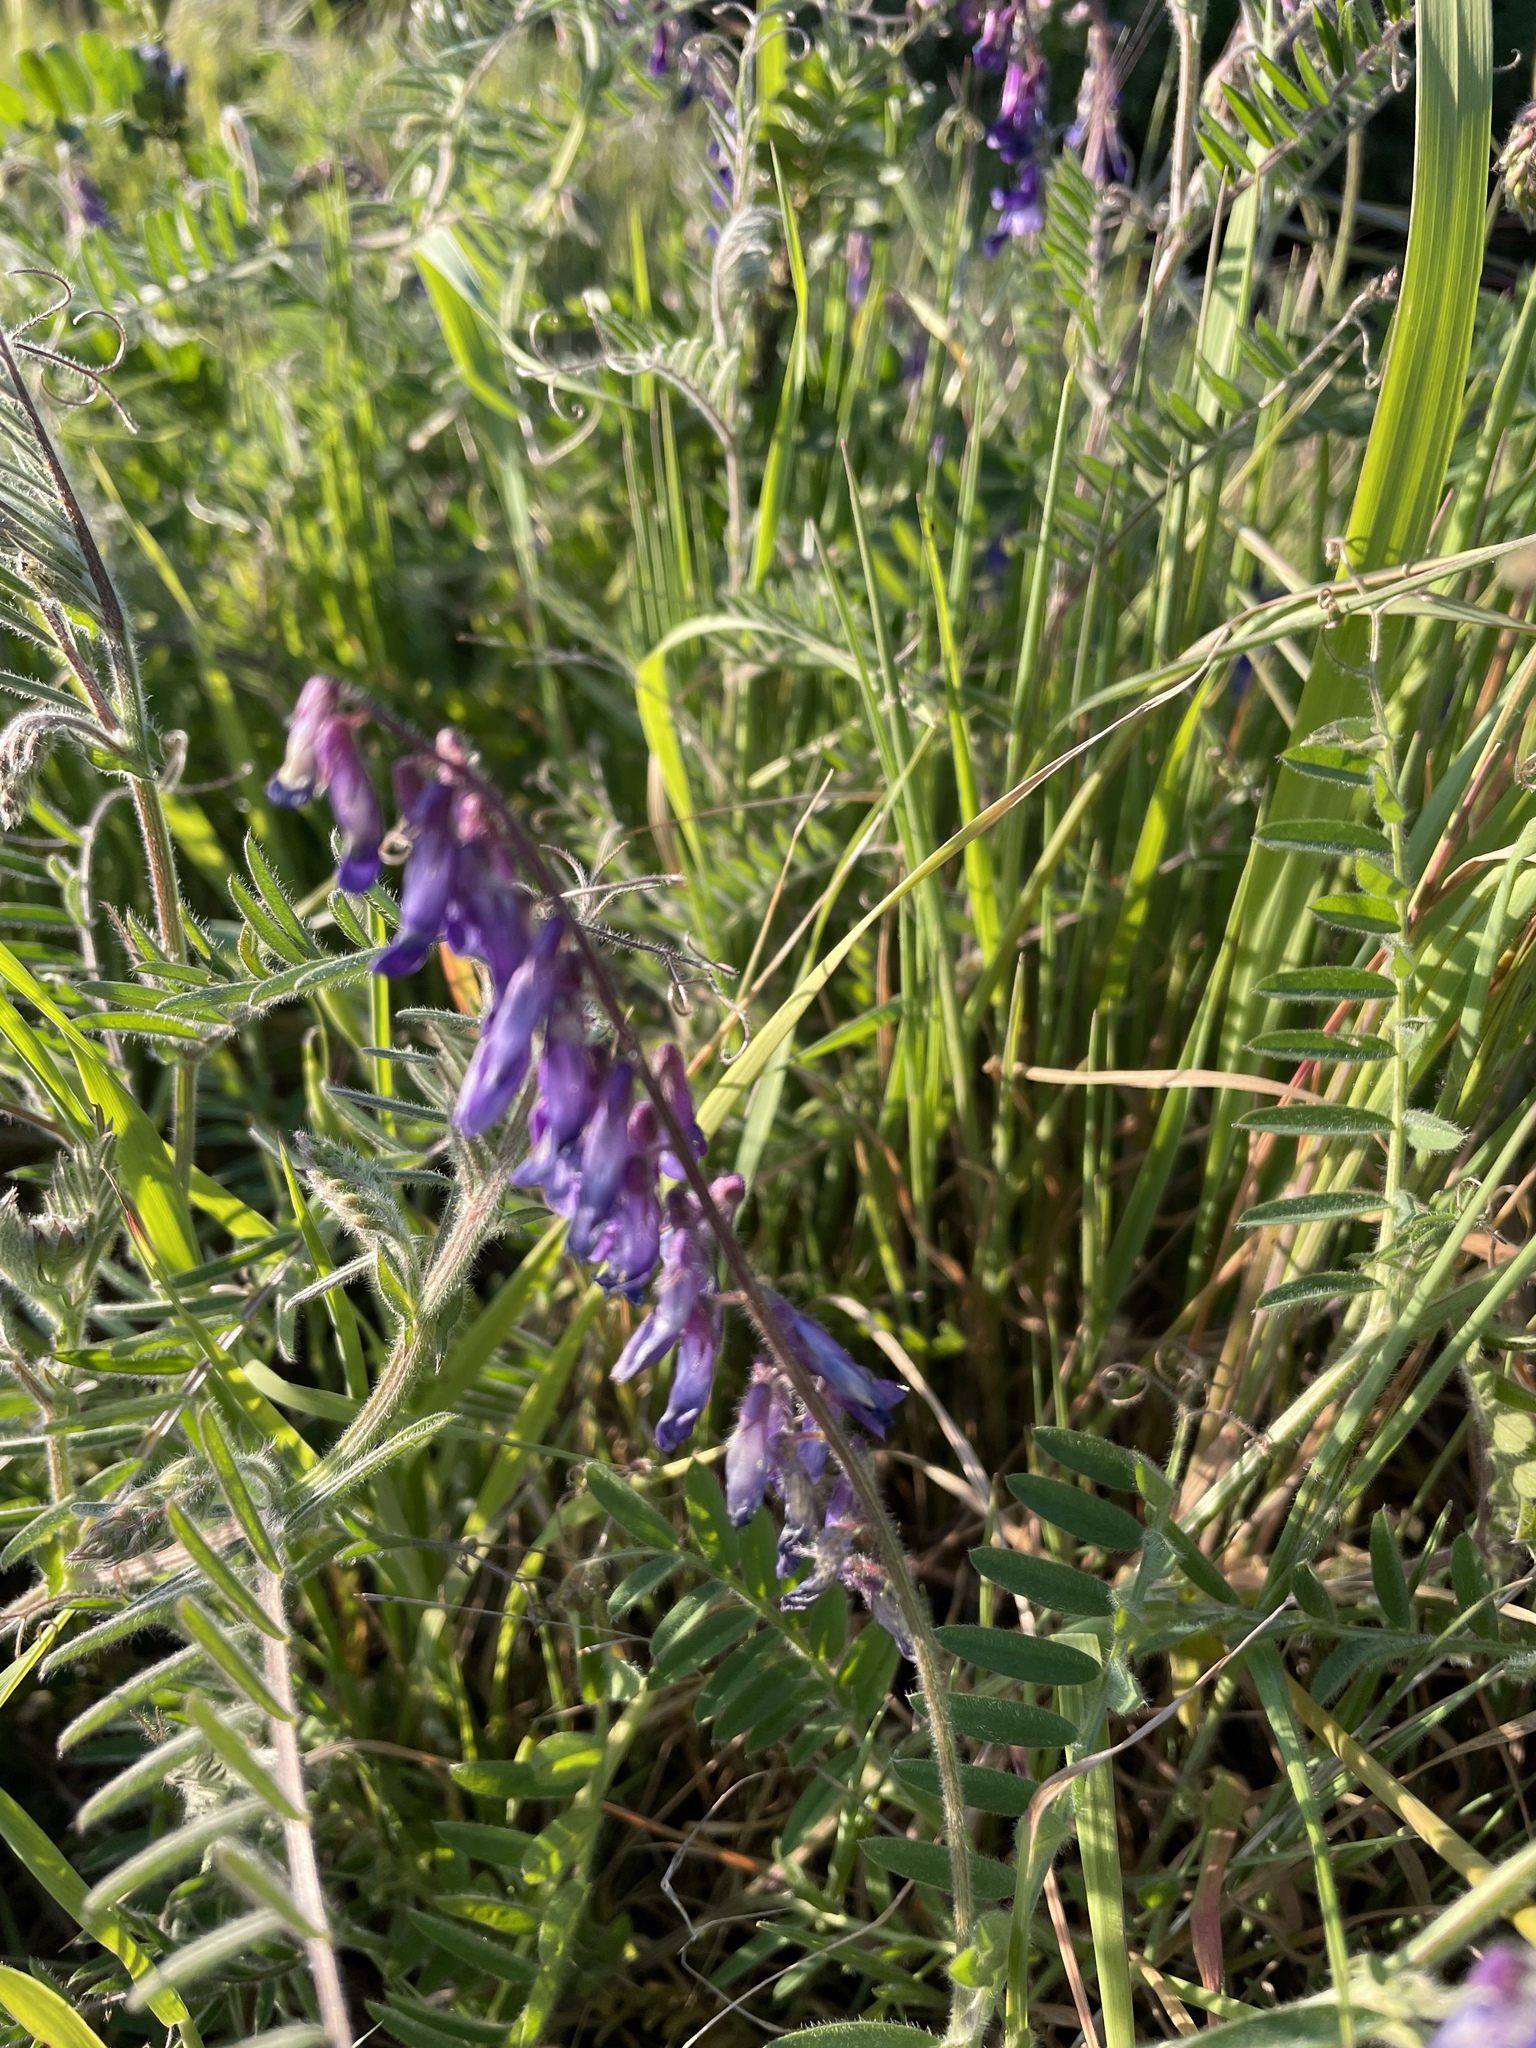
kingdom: Plantae
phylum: Tracheophyta
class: Magnoliopsida
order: Fabales
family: Fabaceae
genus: Vicia
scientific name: Vicia villosa
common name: Fodder vetch
